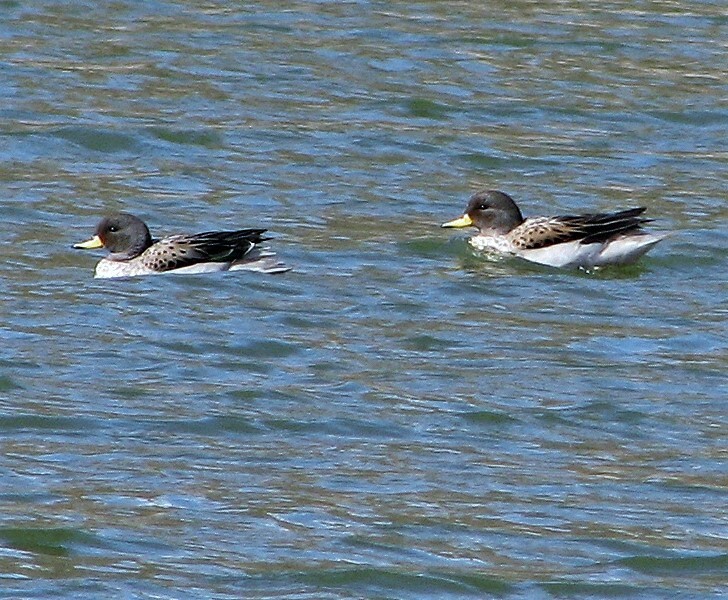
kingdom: Animalia
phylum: Chordata
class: Aves
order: Anseriformes
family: Anatidae
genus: Anas
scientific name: Anas flavirostris
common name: Yellow-billed teal
